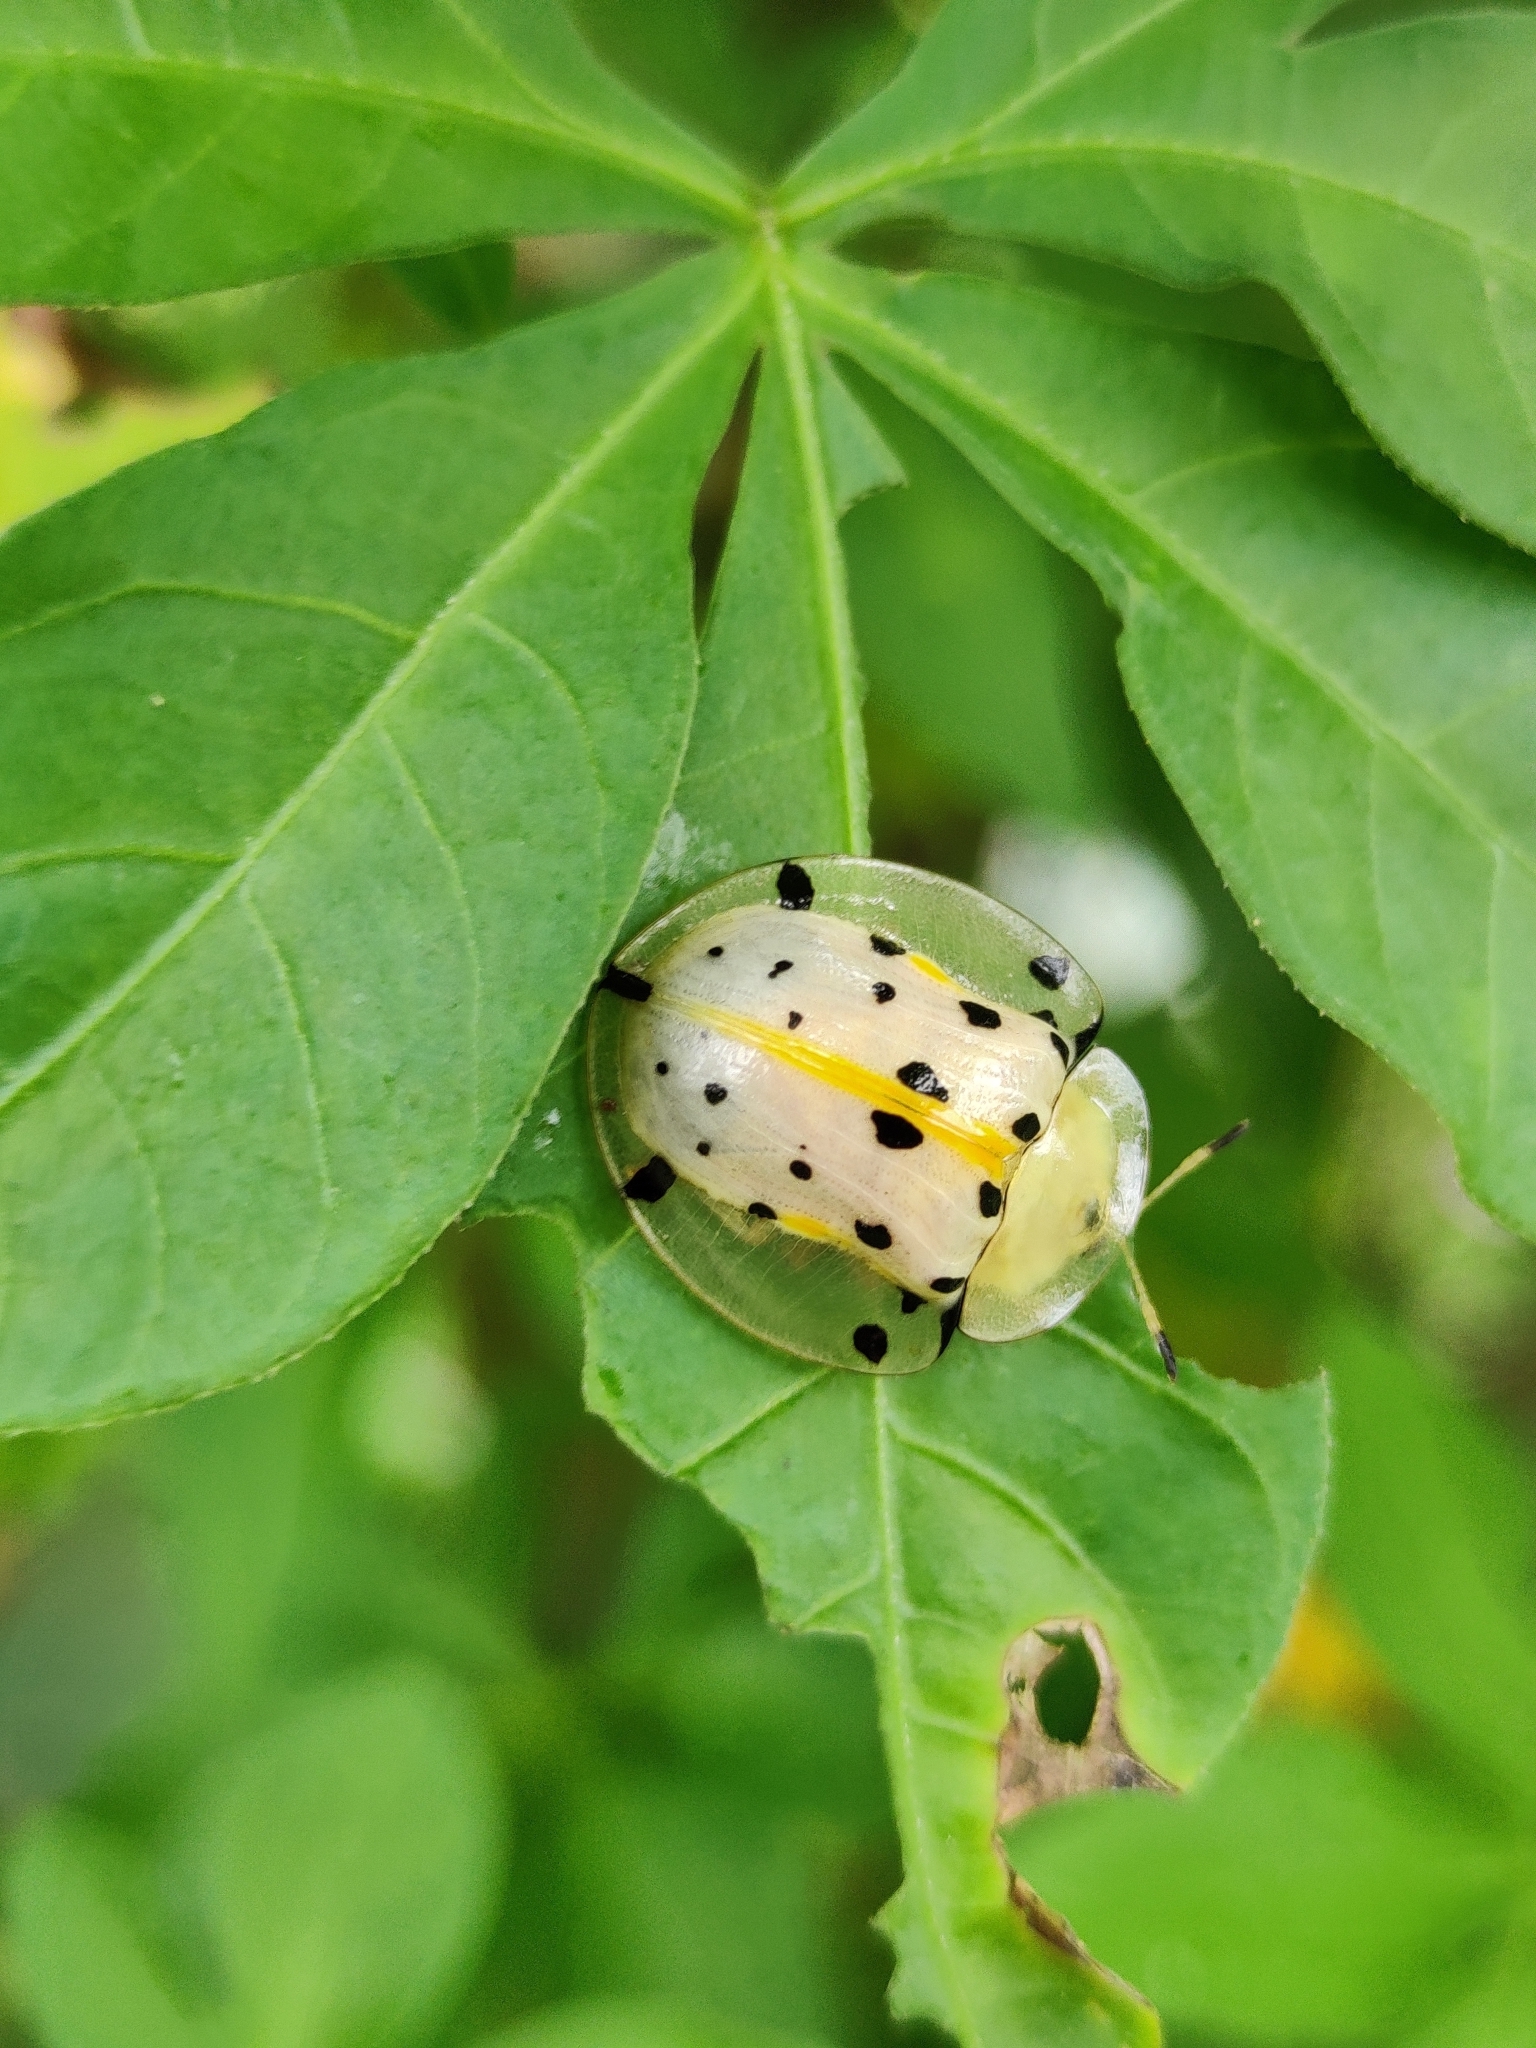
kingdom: Animalia
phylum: Arthropoda
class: Insecta
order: Coleoptera
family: Chrysomelidae
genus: Aspidimorpha
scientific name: Aspidimorpha miliaris
